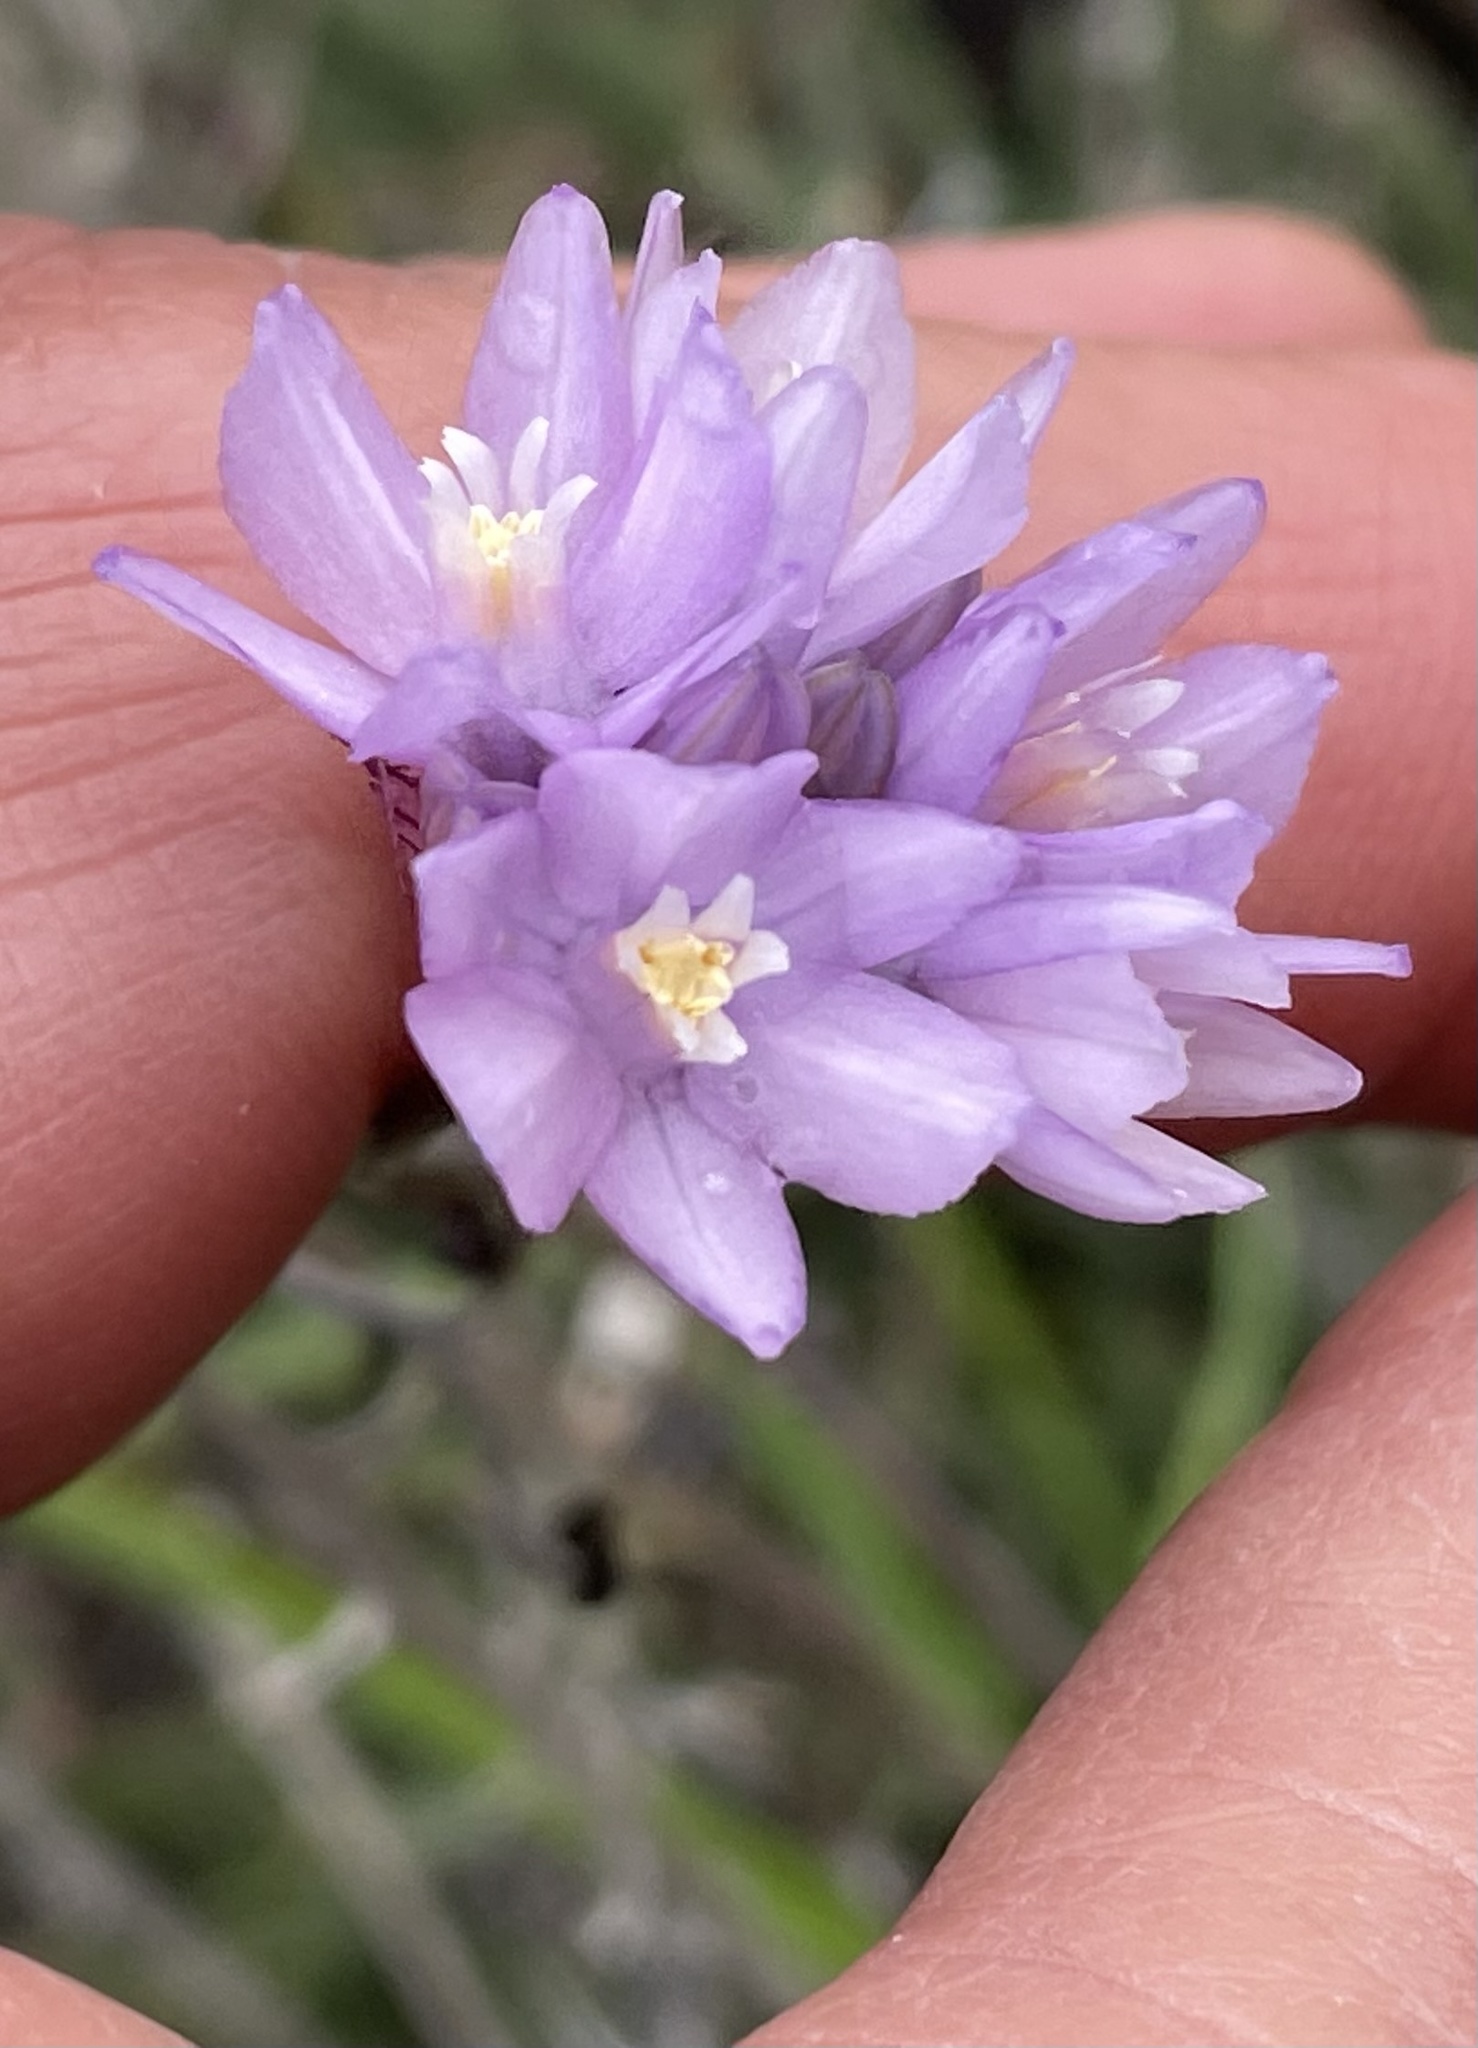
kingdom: Plantae
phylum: Tracheophyta
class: Liliopsida
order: Asparagales
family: Asparagaceae
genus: Dipterostemon
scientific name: Dipterostemon capitatus
